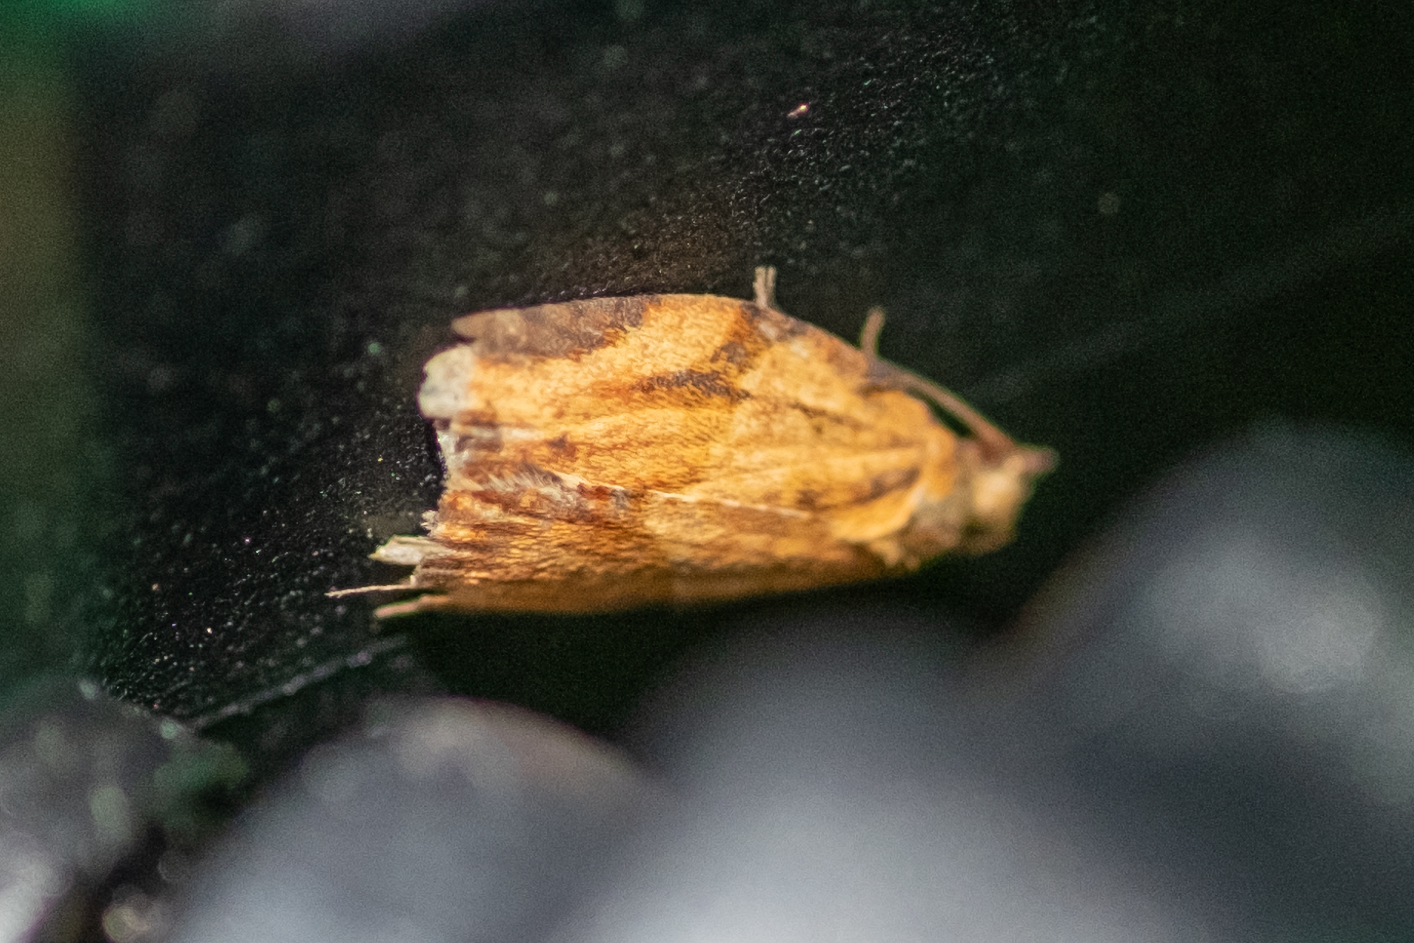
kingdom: Animalia
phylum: Arthropoda
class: Insecta
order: Lepidoptera
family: Tortricidae
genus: Epiphyas
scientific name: Epiphyas postvittana
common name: Light brown apple moth
